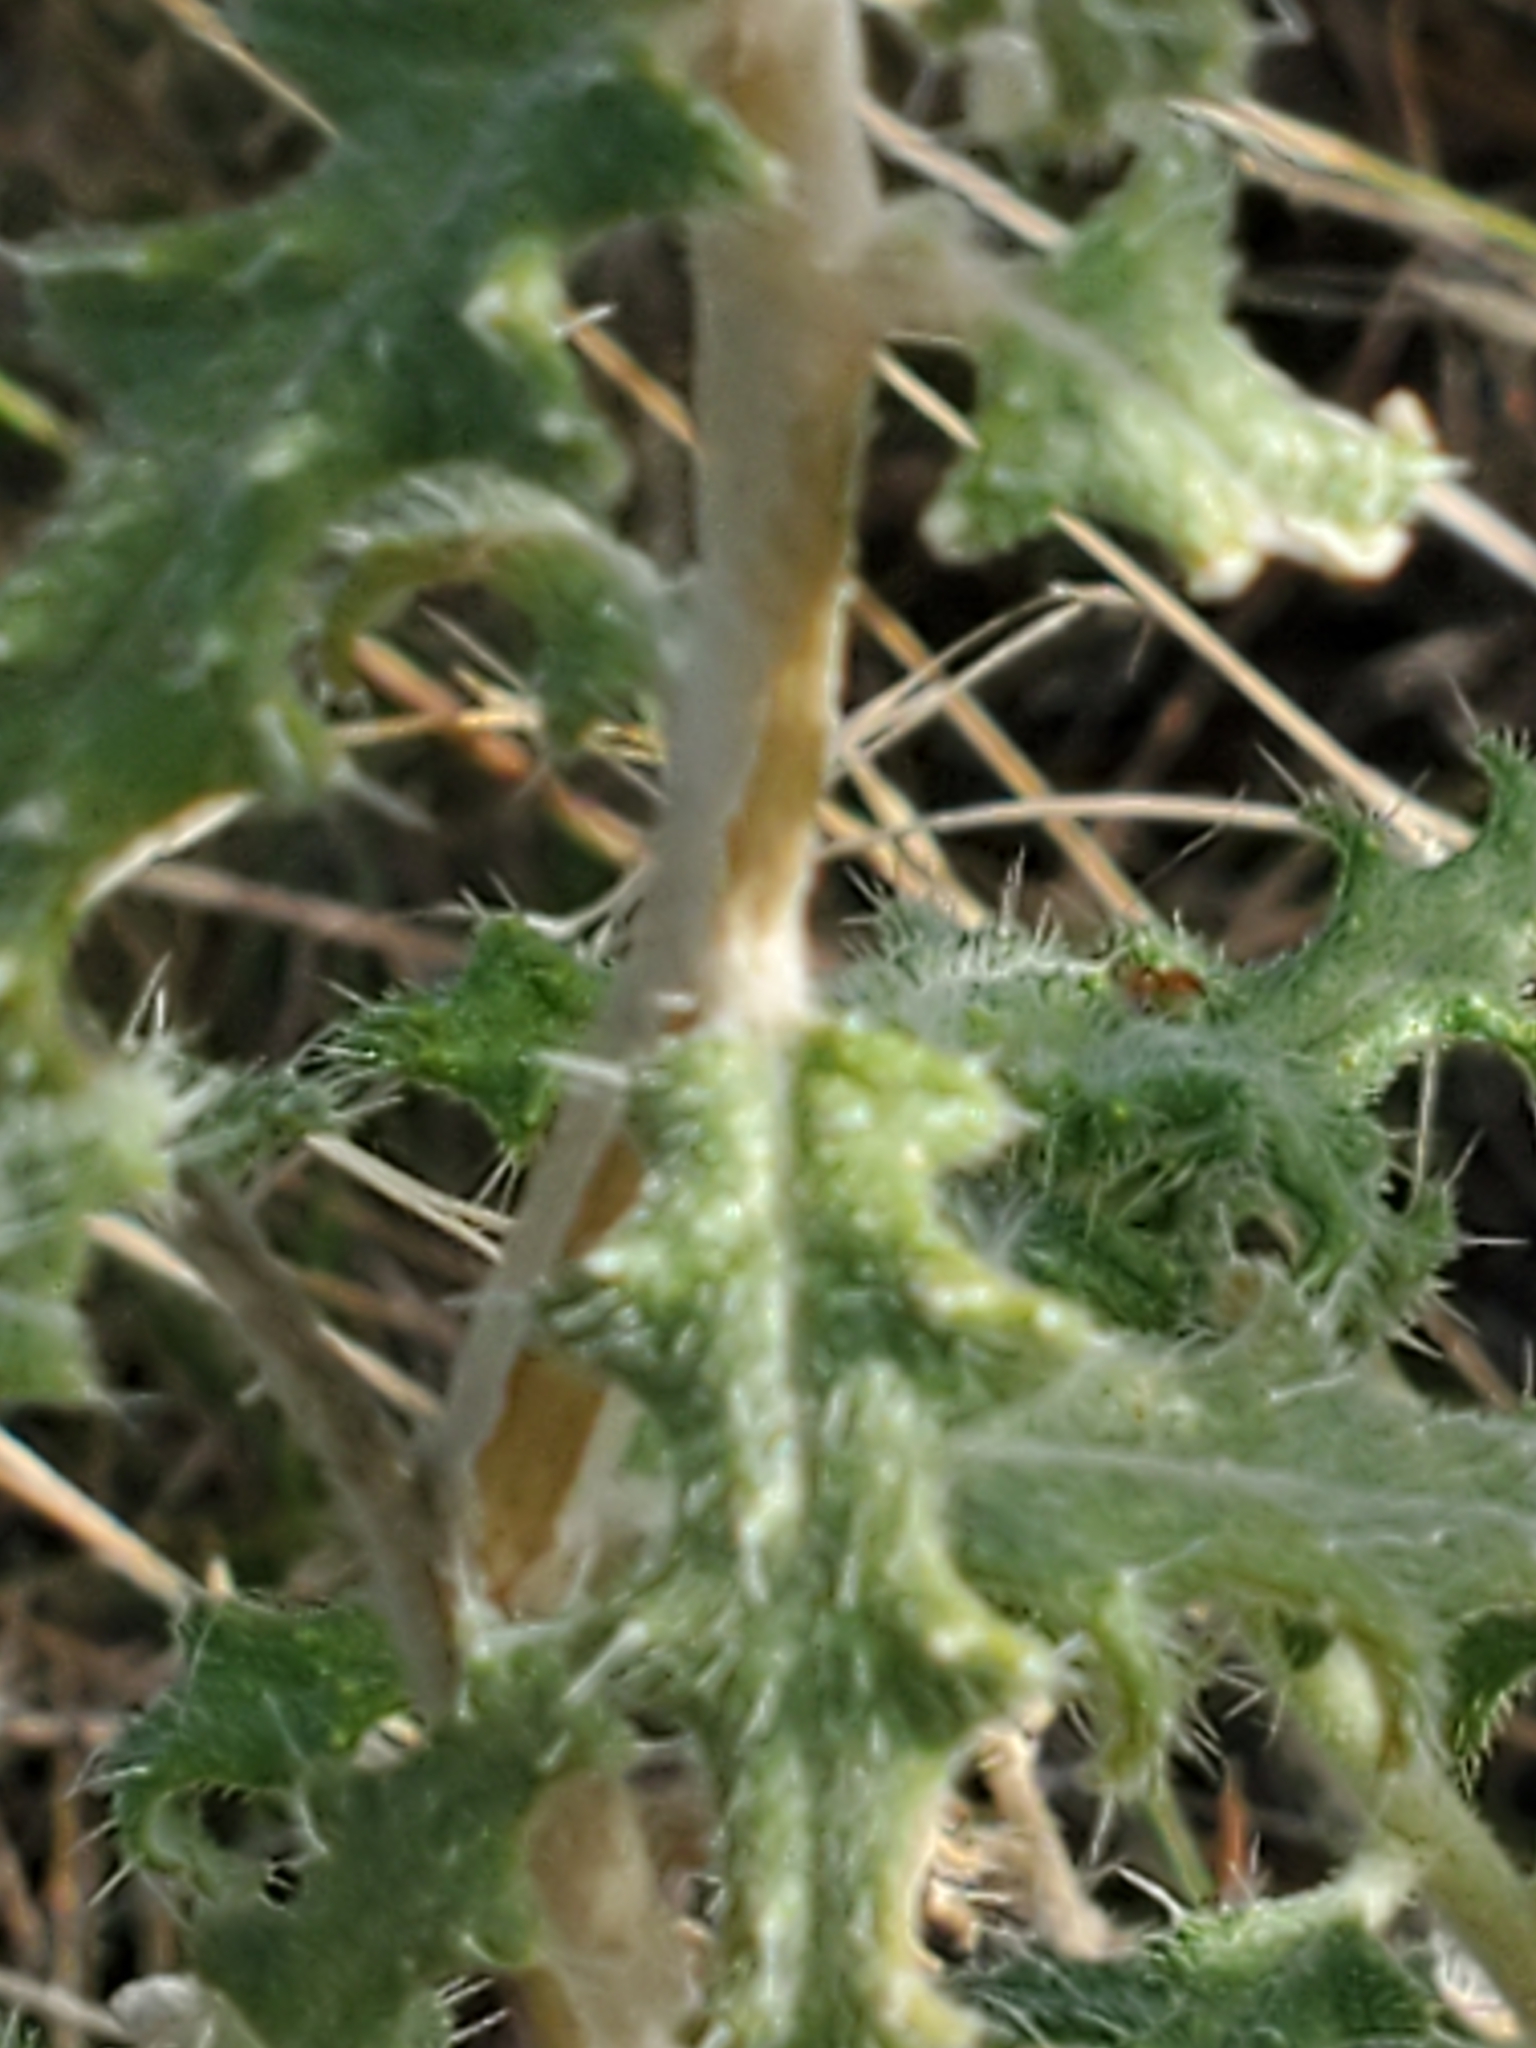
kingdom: Plantae
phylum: Tracheophyta
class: Magnoliopsida
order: Cornales
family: Loasaceae
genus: Cevallia
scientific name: Cevallia sinuata
